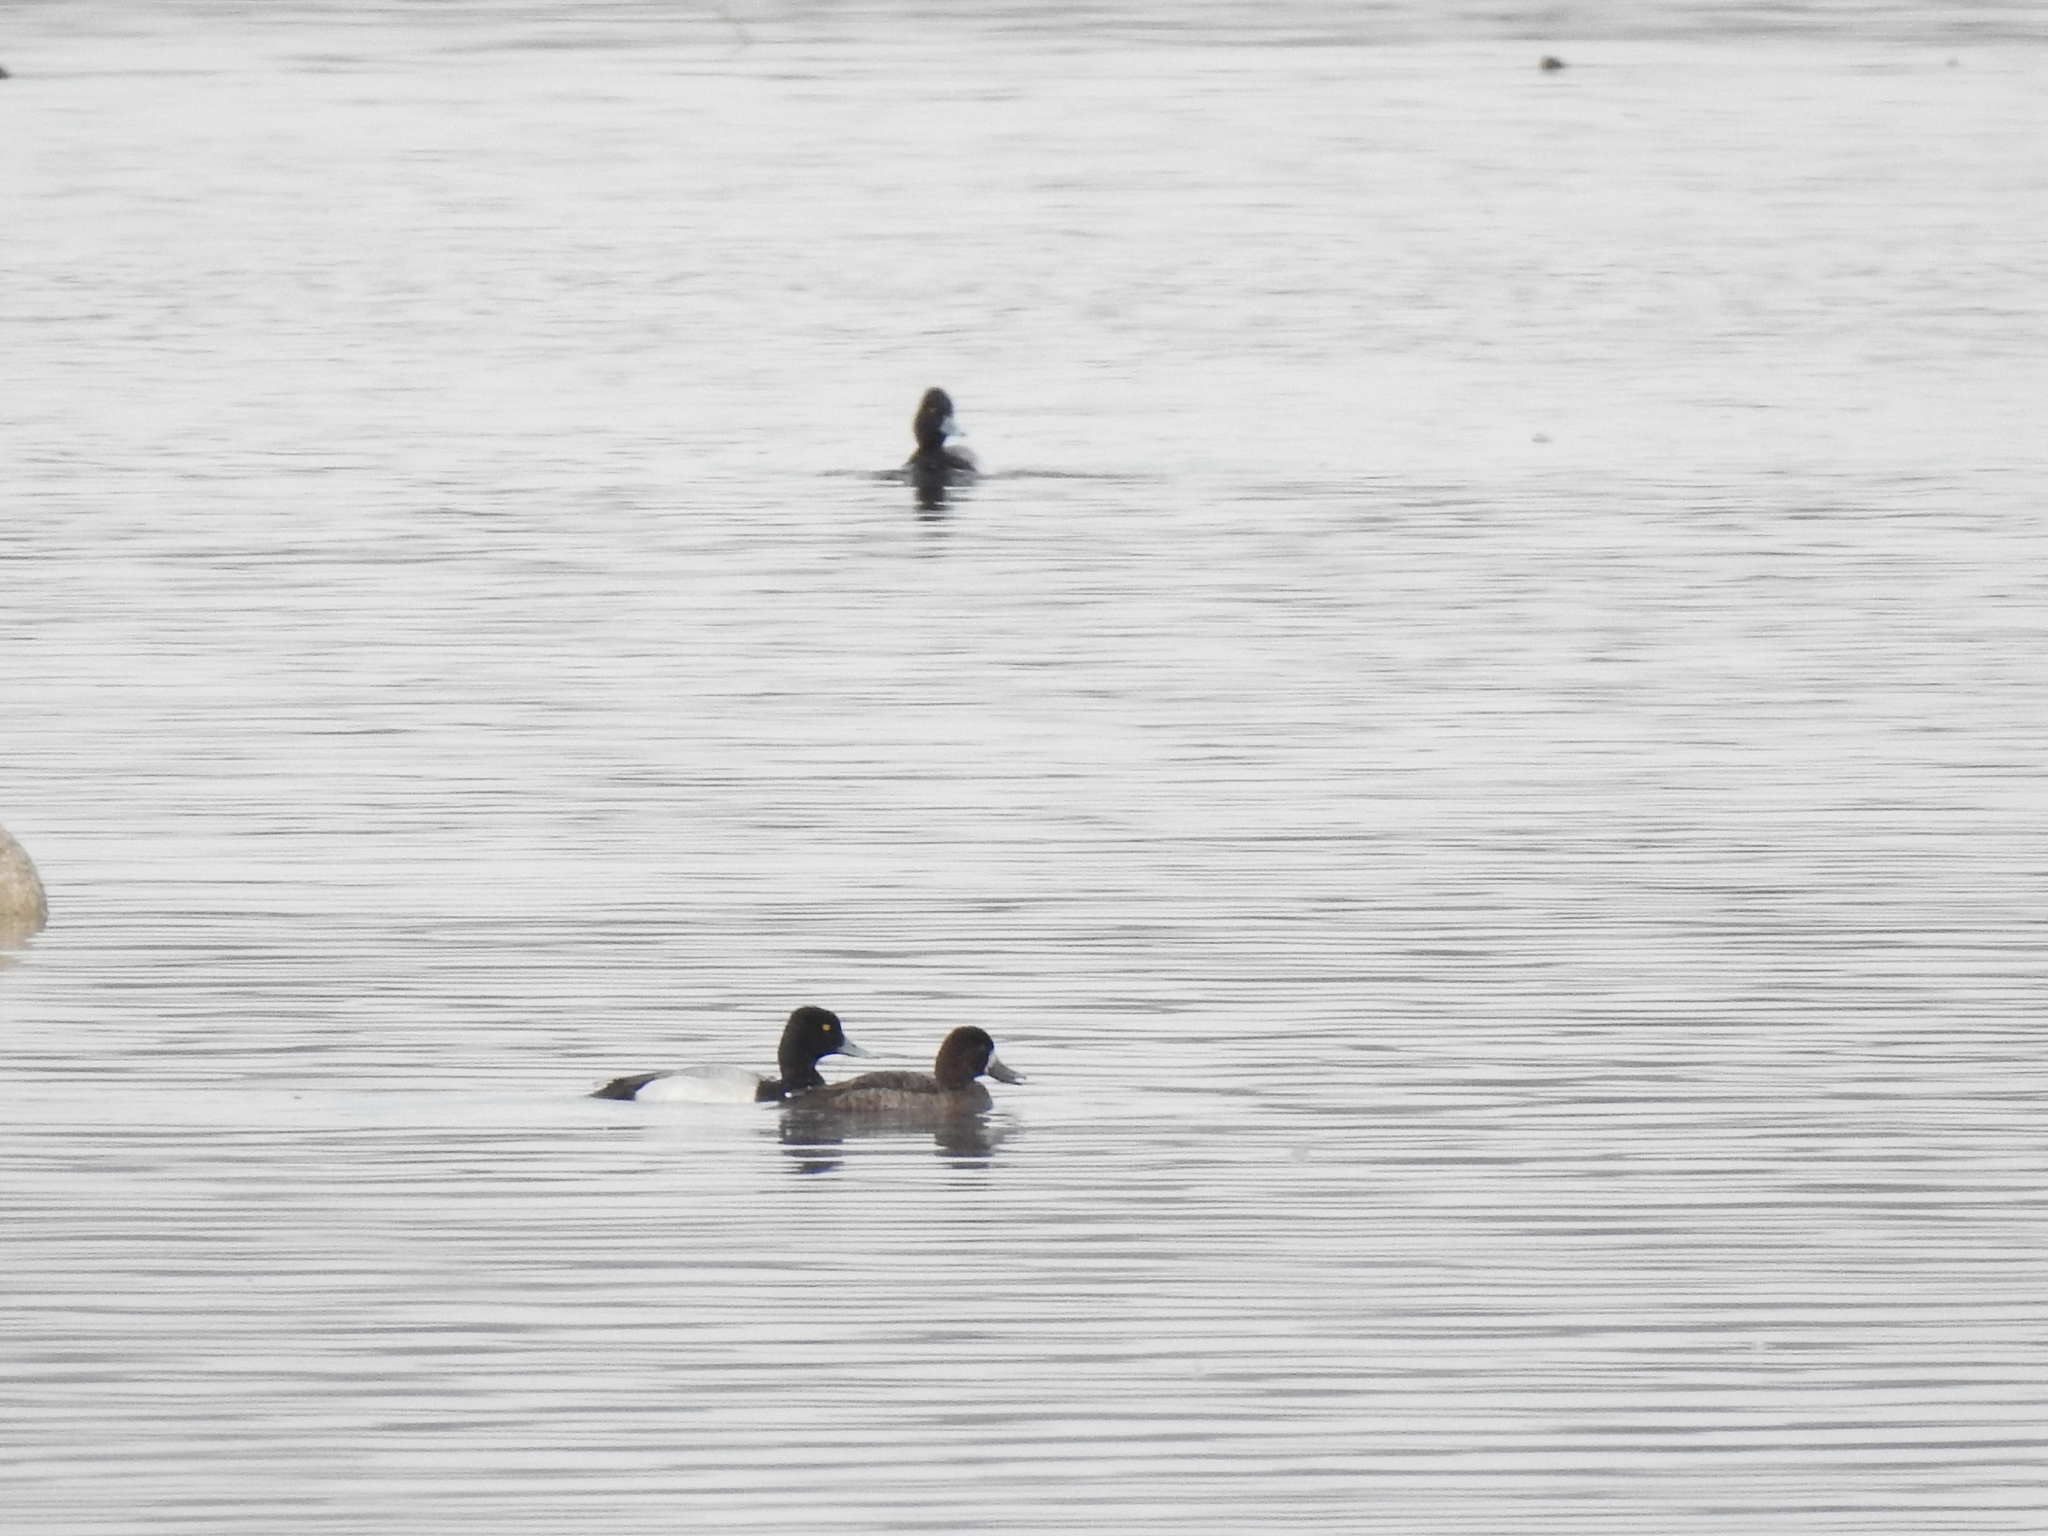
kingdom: Animalia
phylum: Chordata
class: Aves
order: Anseriformes
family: Anatidae
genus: Aythya
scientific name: Aythya affinis
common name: Lesser scaup
